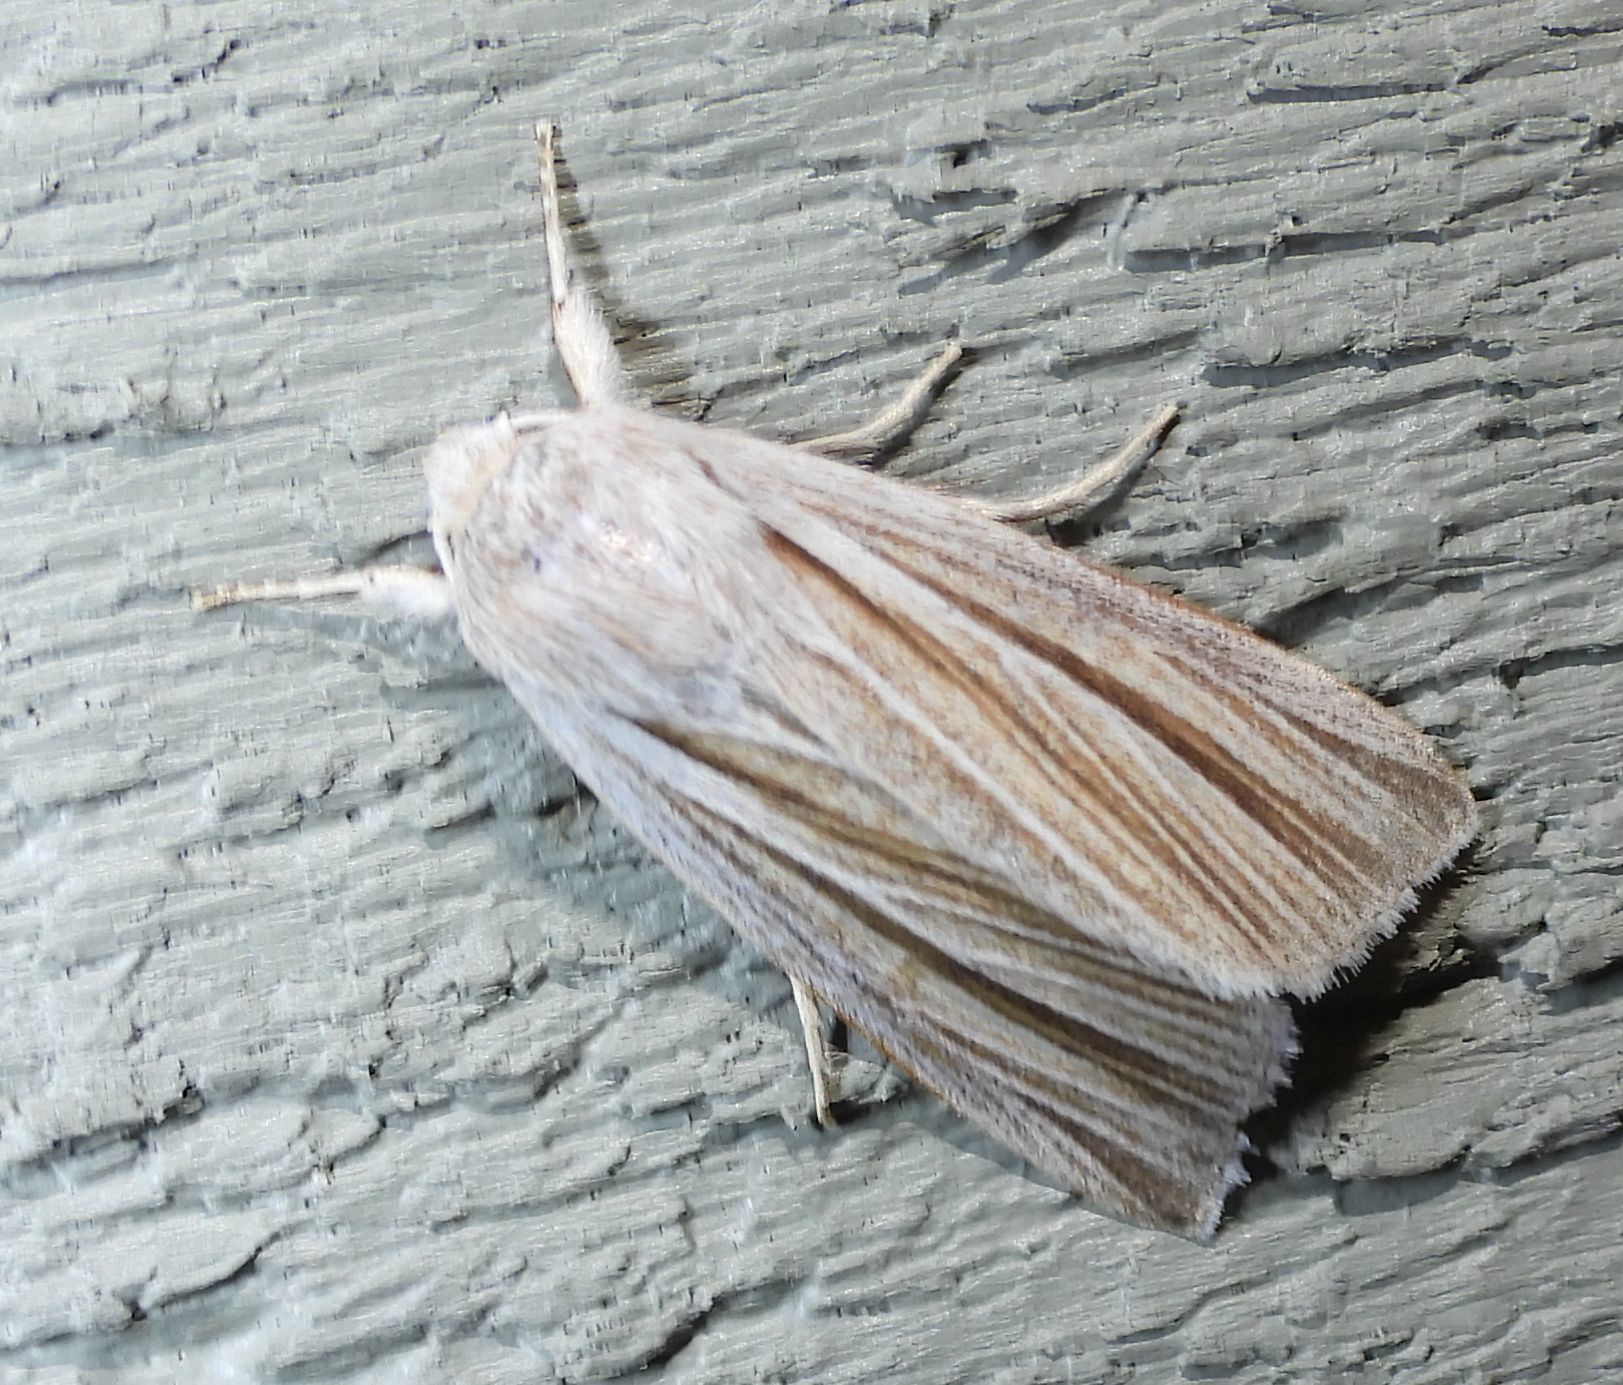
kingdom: Animalia
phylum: Arthropoda
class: Insecta
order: Lepidoptera
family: Noctuidae
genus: Acronicta
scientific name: Acronicta insularis
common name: Henry's marsh moth
